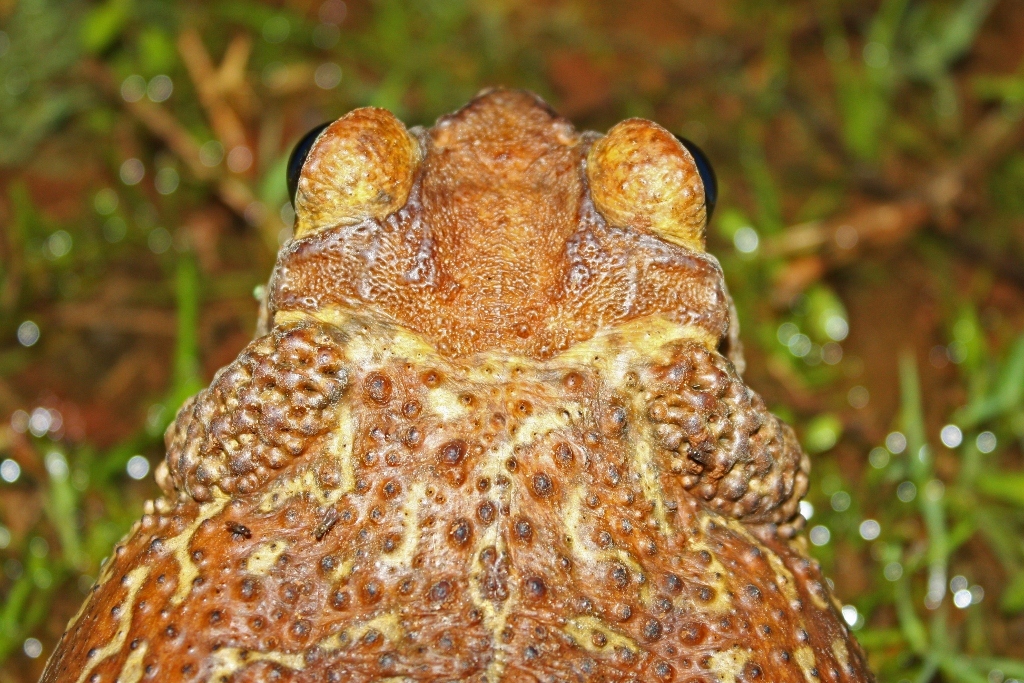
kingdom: Animalia
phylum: Chordata
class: Amphibia
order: Anura
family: Bufonidae
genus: Peltophryne
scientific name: Peltophryne peltocephala
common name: Eastern cuba giant toad
